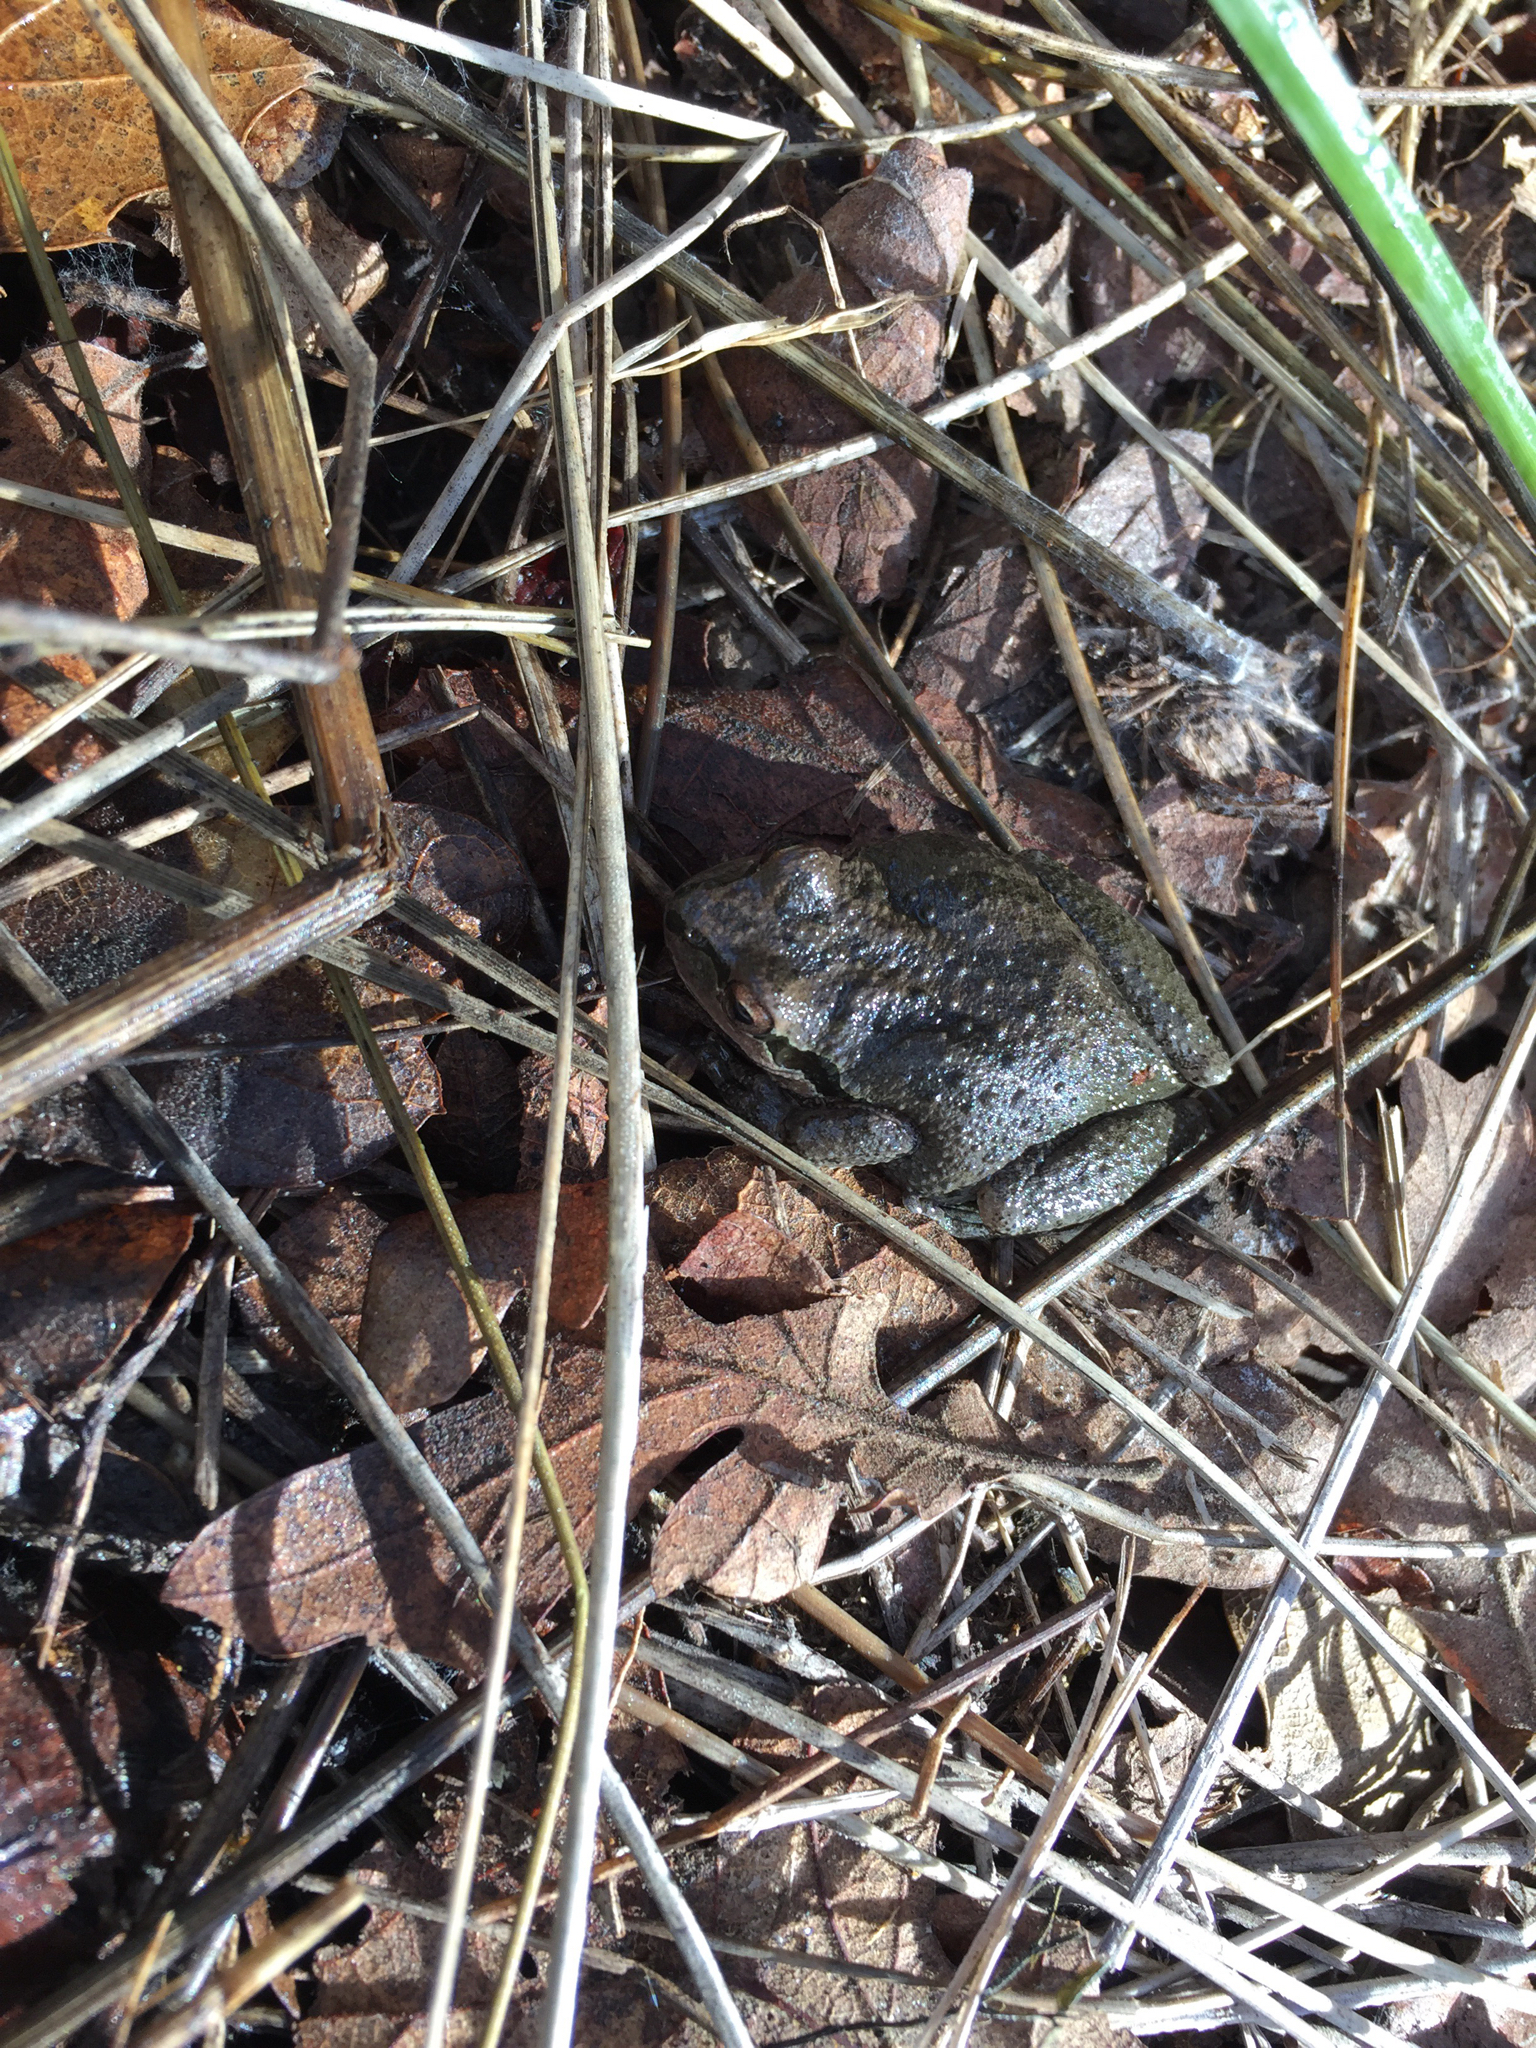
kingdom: Animalia
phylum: Chordata
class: Amphibia
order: Anura
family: Hylidae
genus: Pseudacris
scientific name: Pseudacris regilla
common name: Pacific chorus frog
